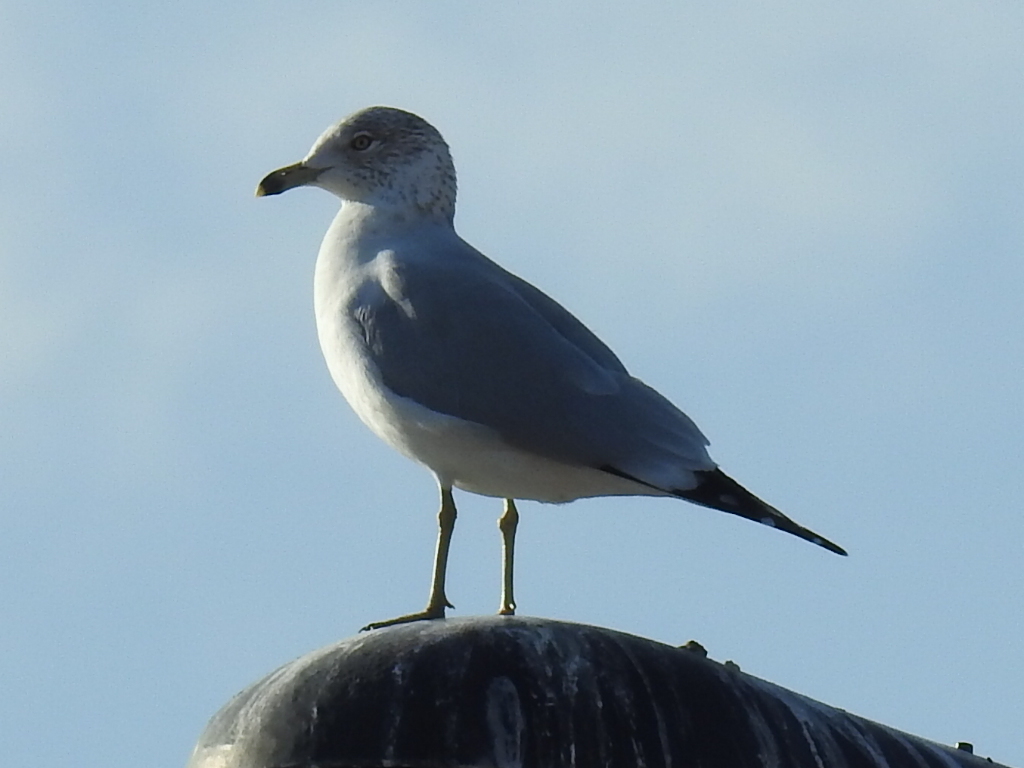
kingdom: Animalia
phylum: Chordata
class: Aves
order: Charadriiformes
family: Laridae
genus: Larus
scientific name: Larus delawarensis
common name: Ring-billed gull
